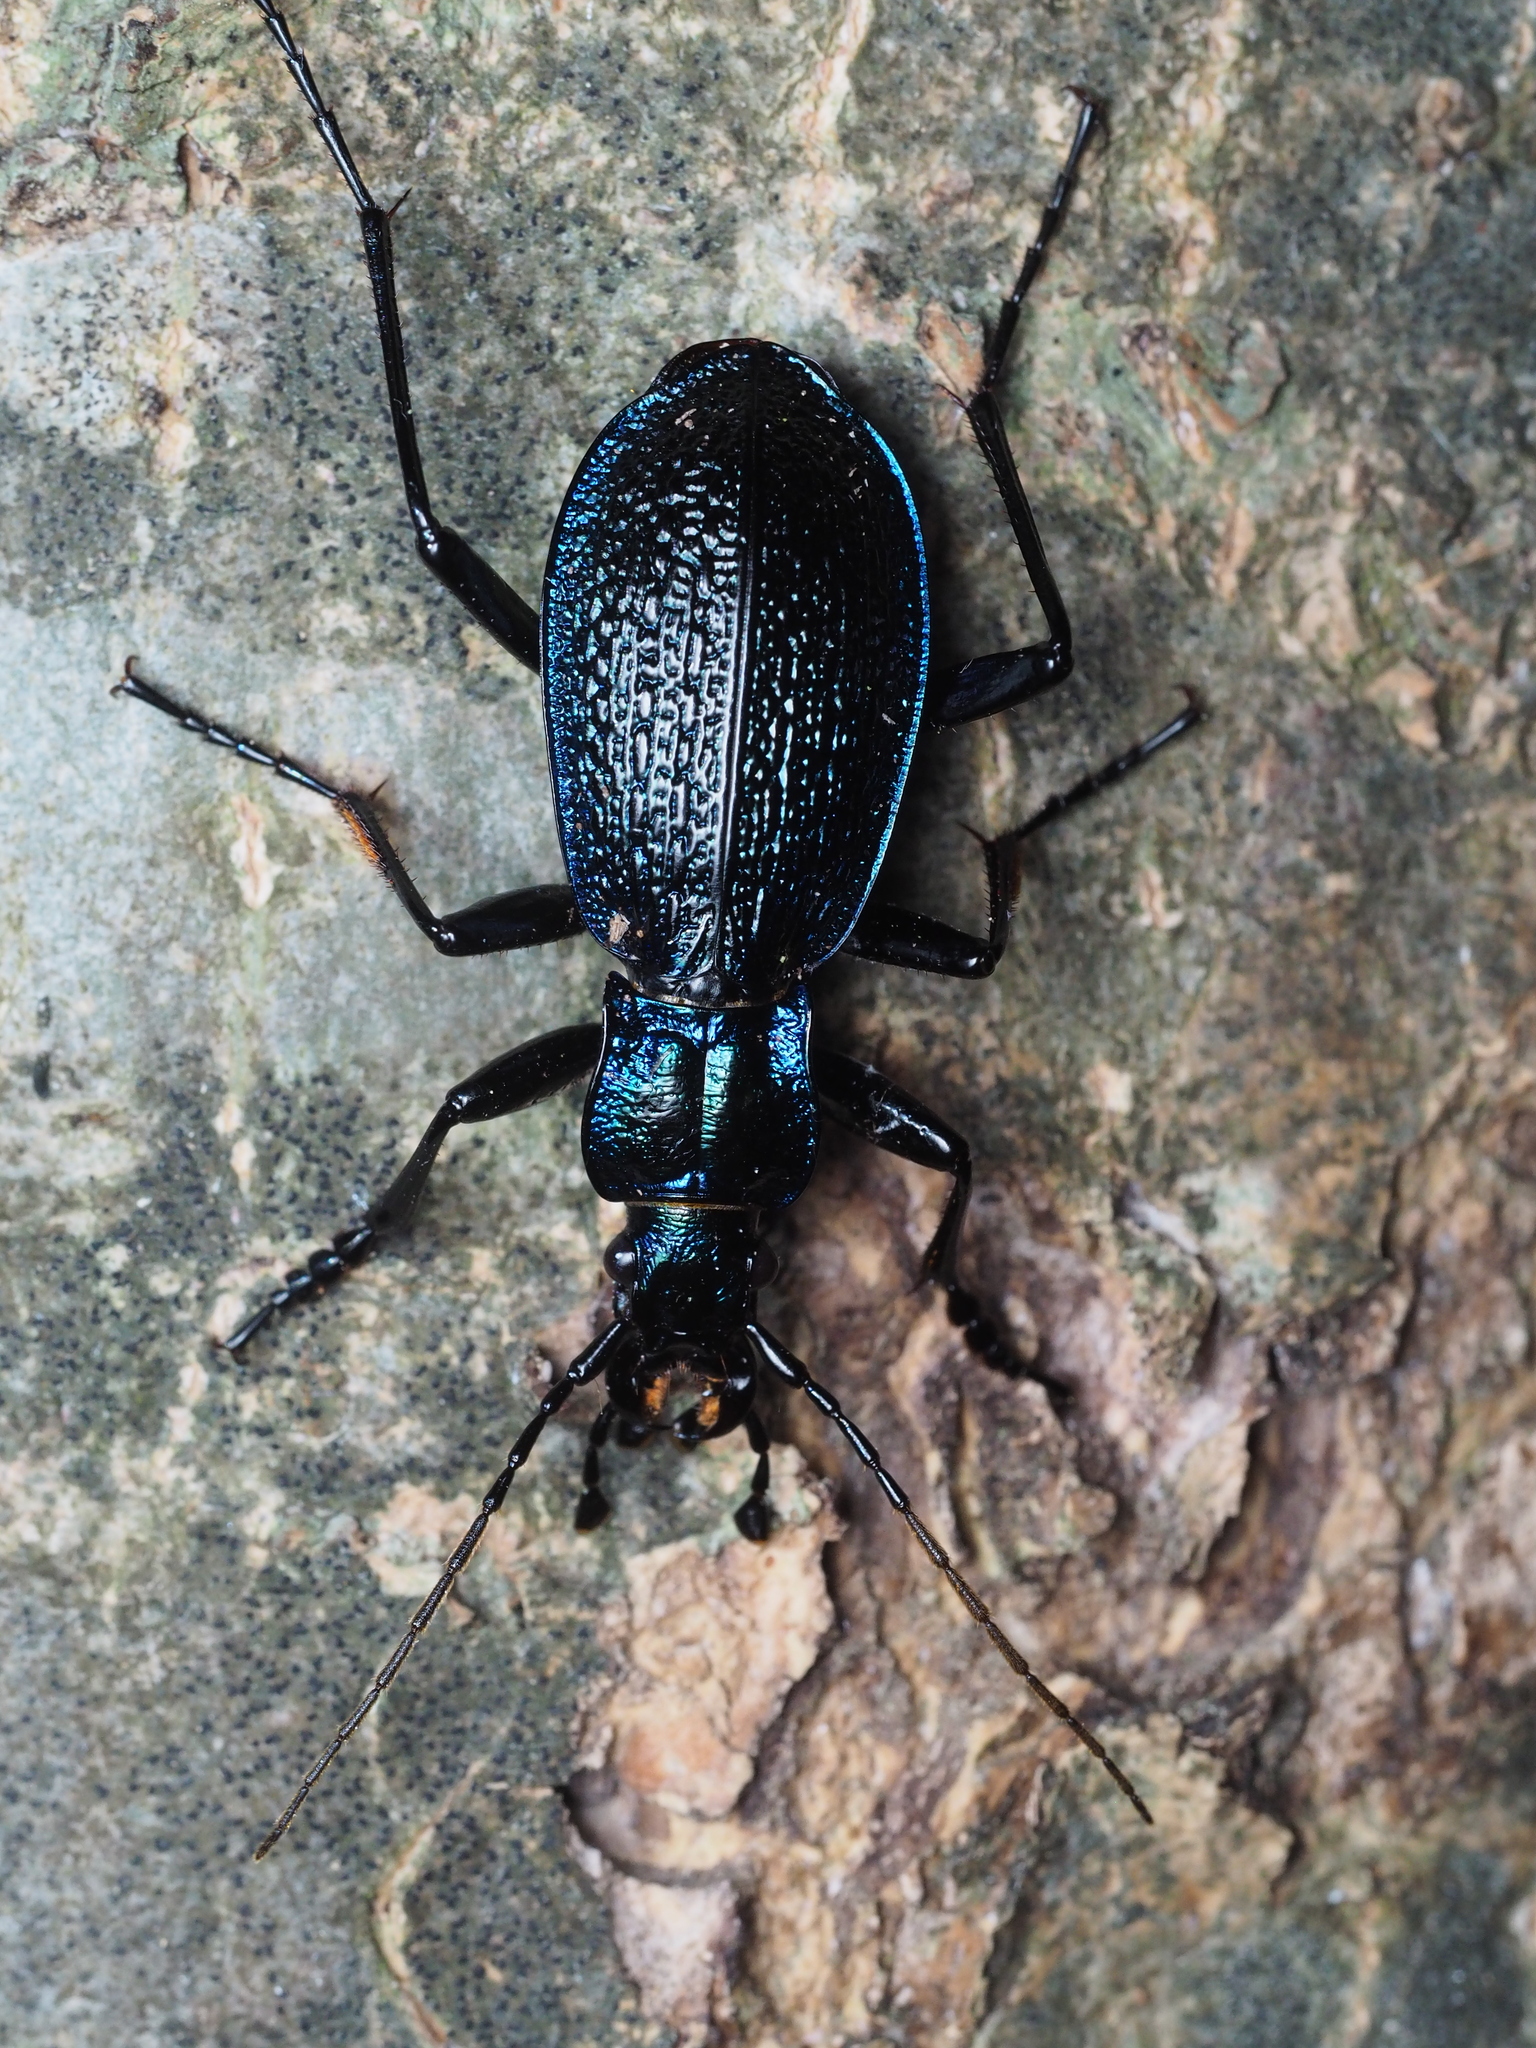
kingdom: Animalia
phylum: Arthropoda
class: Insecta
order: Coleoptera
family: Carabidae
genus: Carabus
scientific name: Carabus intricatus
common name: Blue ground beetle
